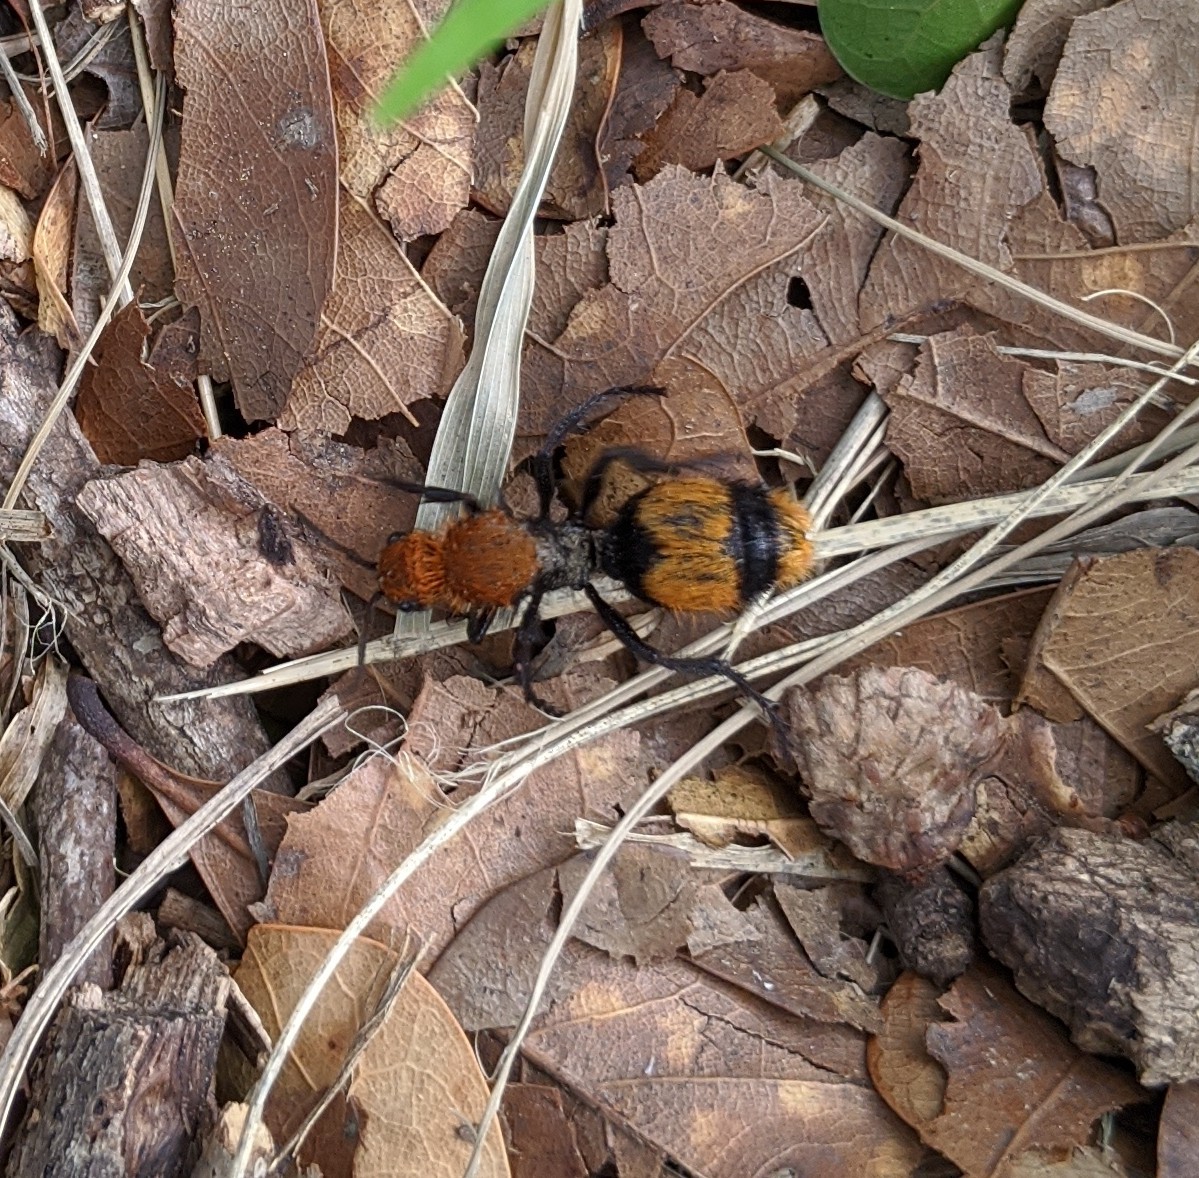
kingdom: Animalia
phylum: Arthropoda
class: Insecta
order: Hymenoptera
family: Mutillidae
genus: Dasymutilla
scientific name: Dasymutilla occidentalis
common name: Common eastern velvet ant
